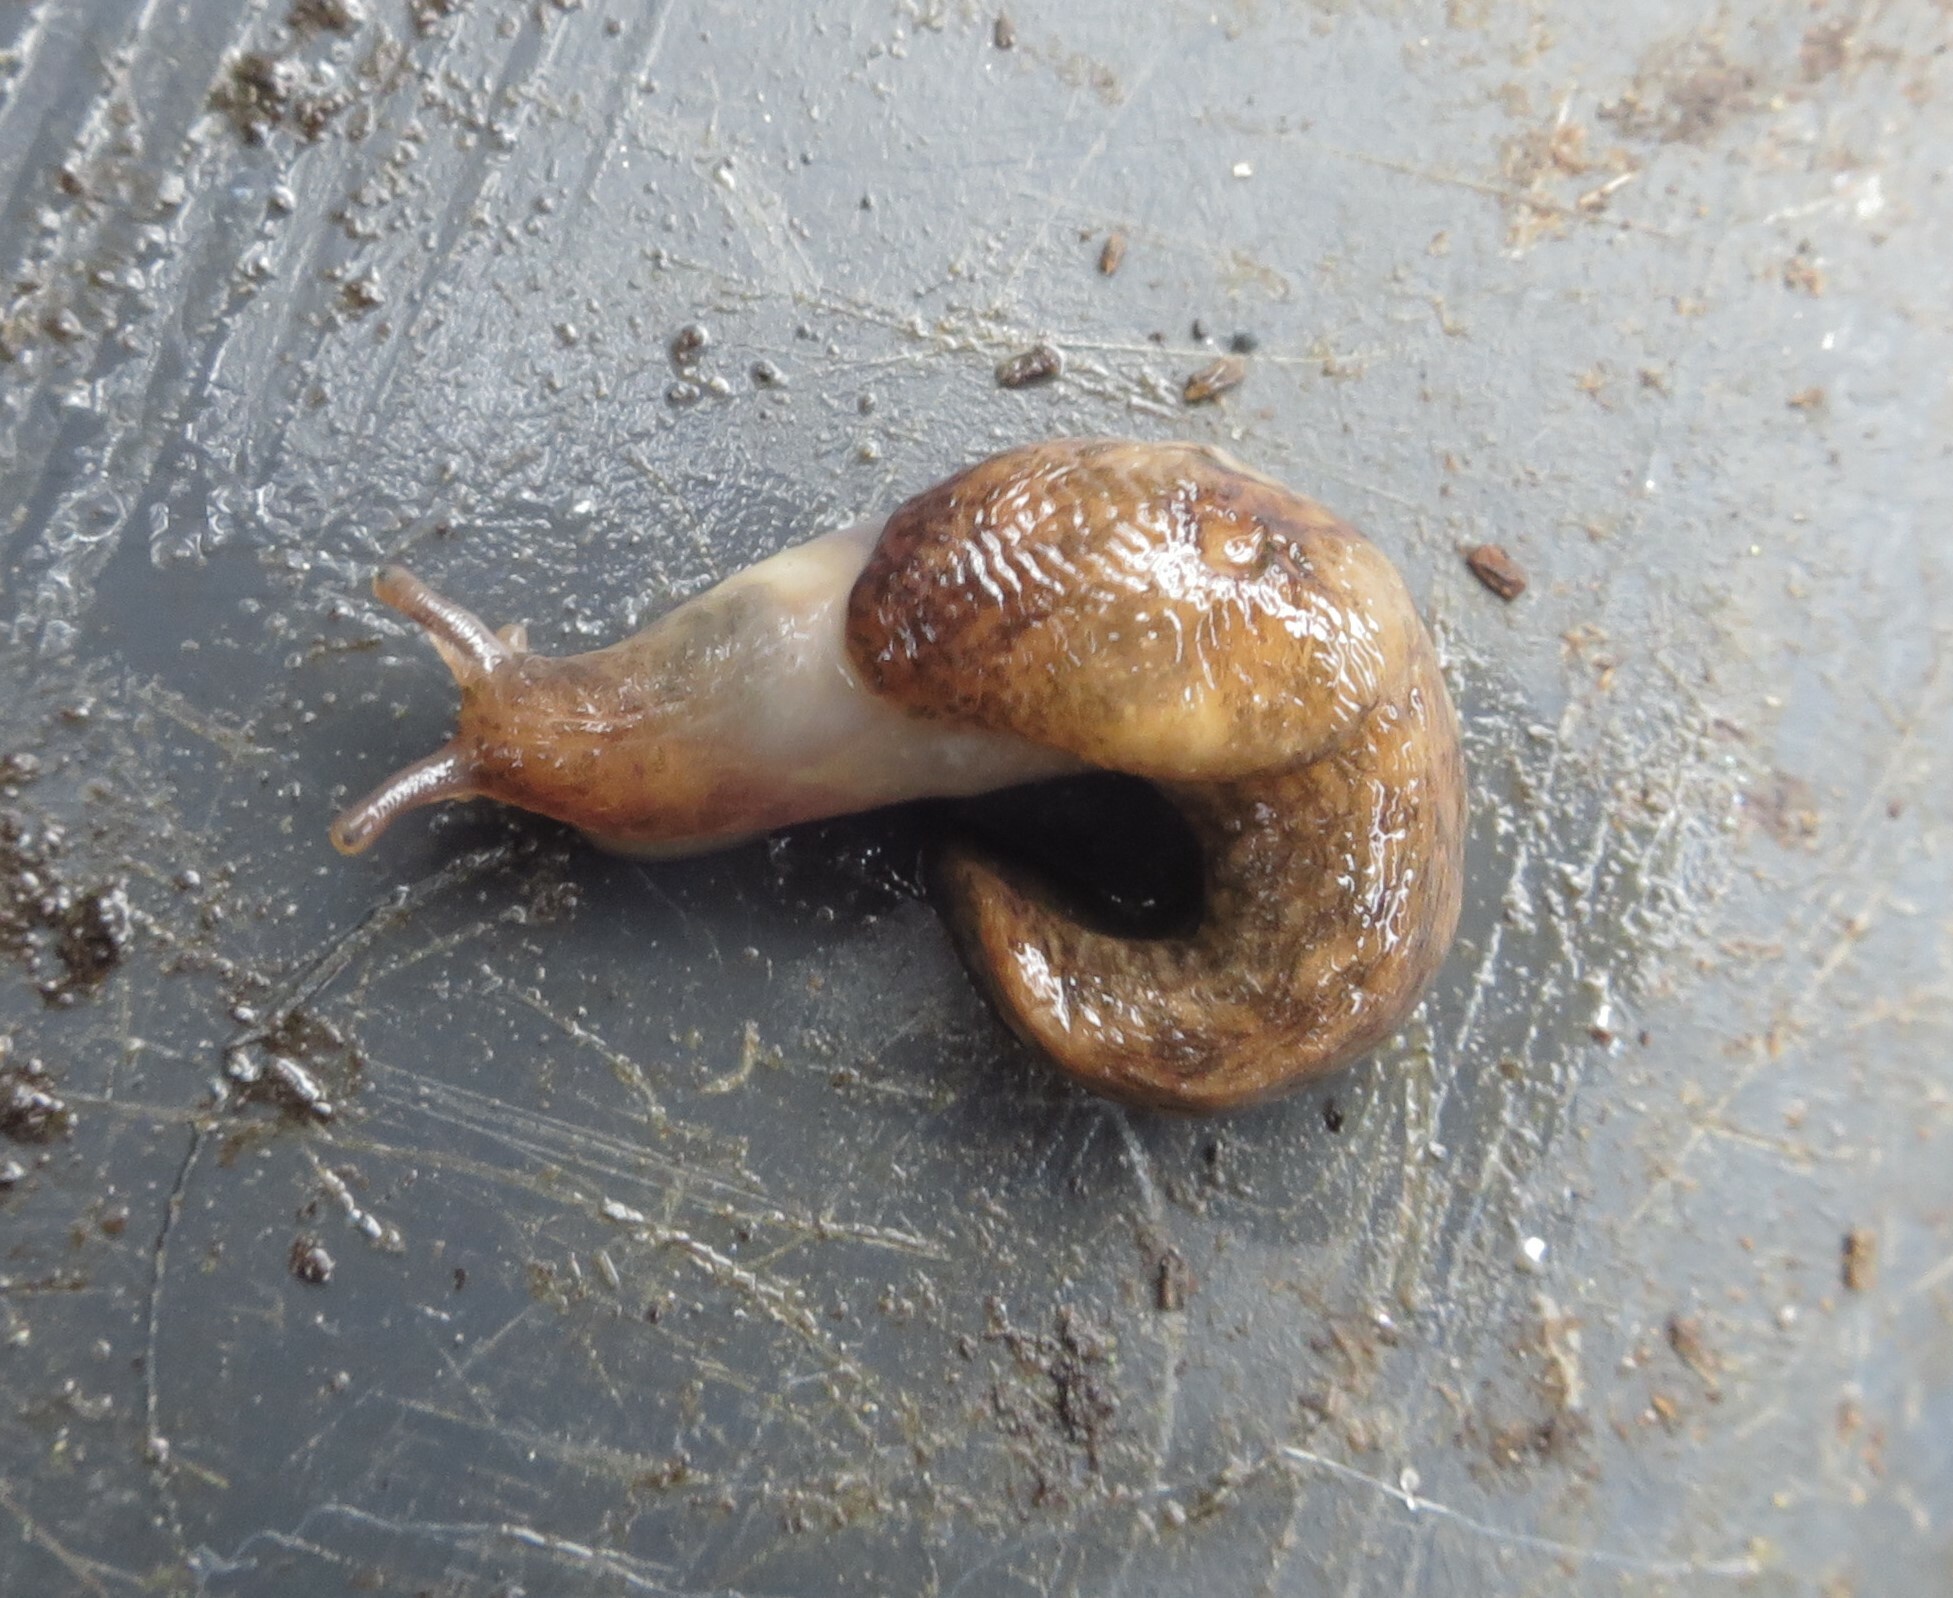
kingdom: Animalia
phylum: Mollusca
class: Gastropoda
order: Stylommatophora
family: Agriolimacidae
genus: Deroceras
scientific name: Deroceras reticulatum
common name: Gray field slug
